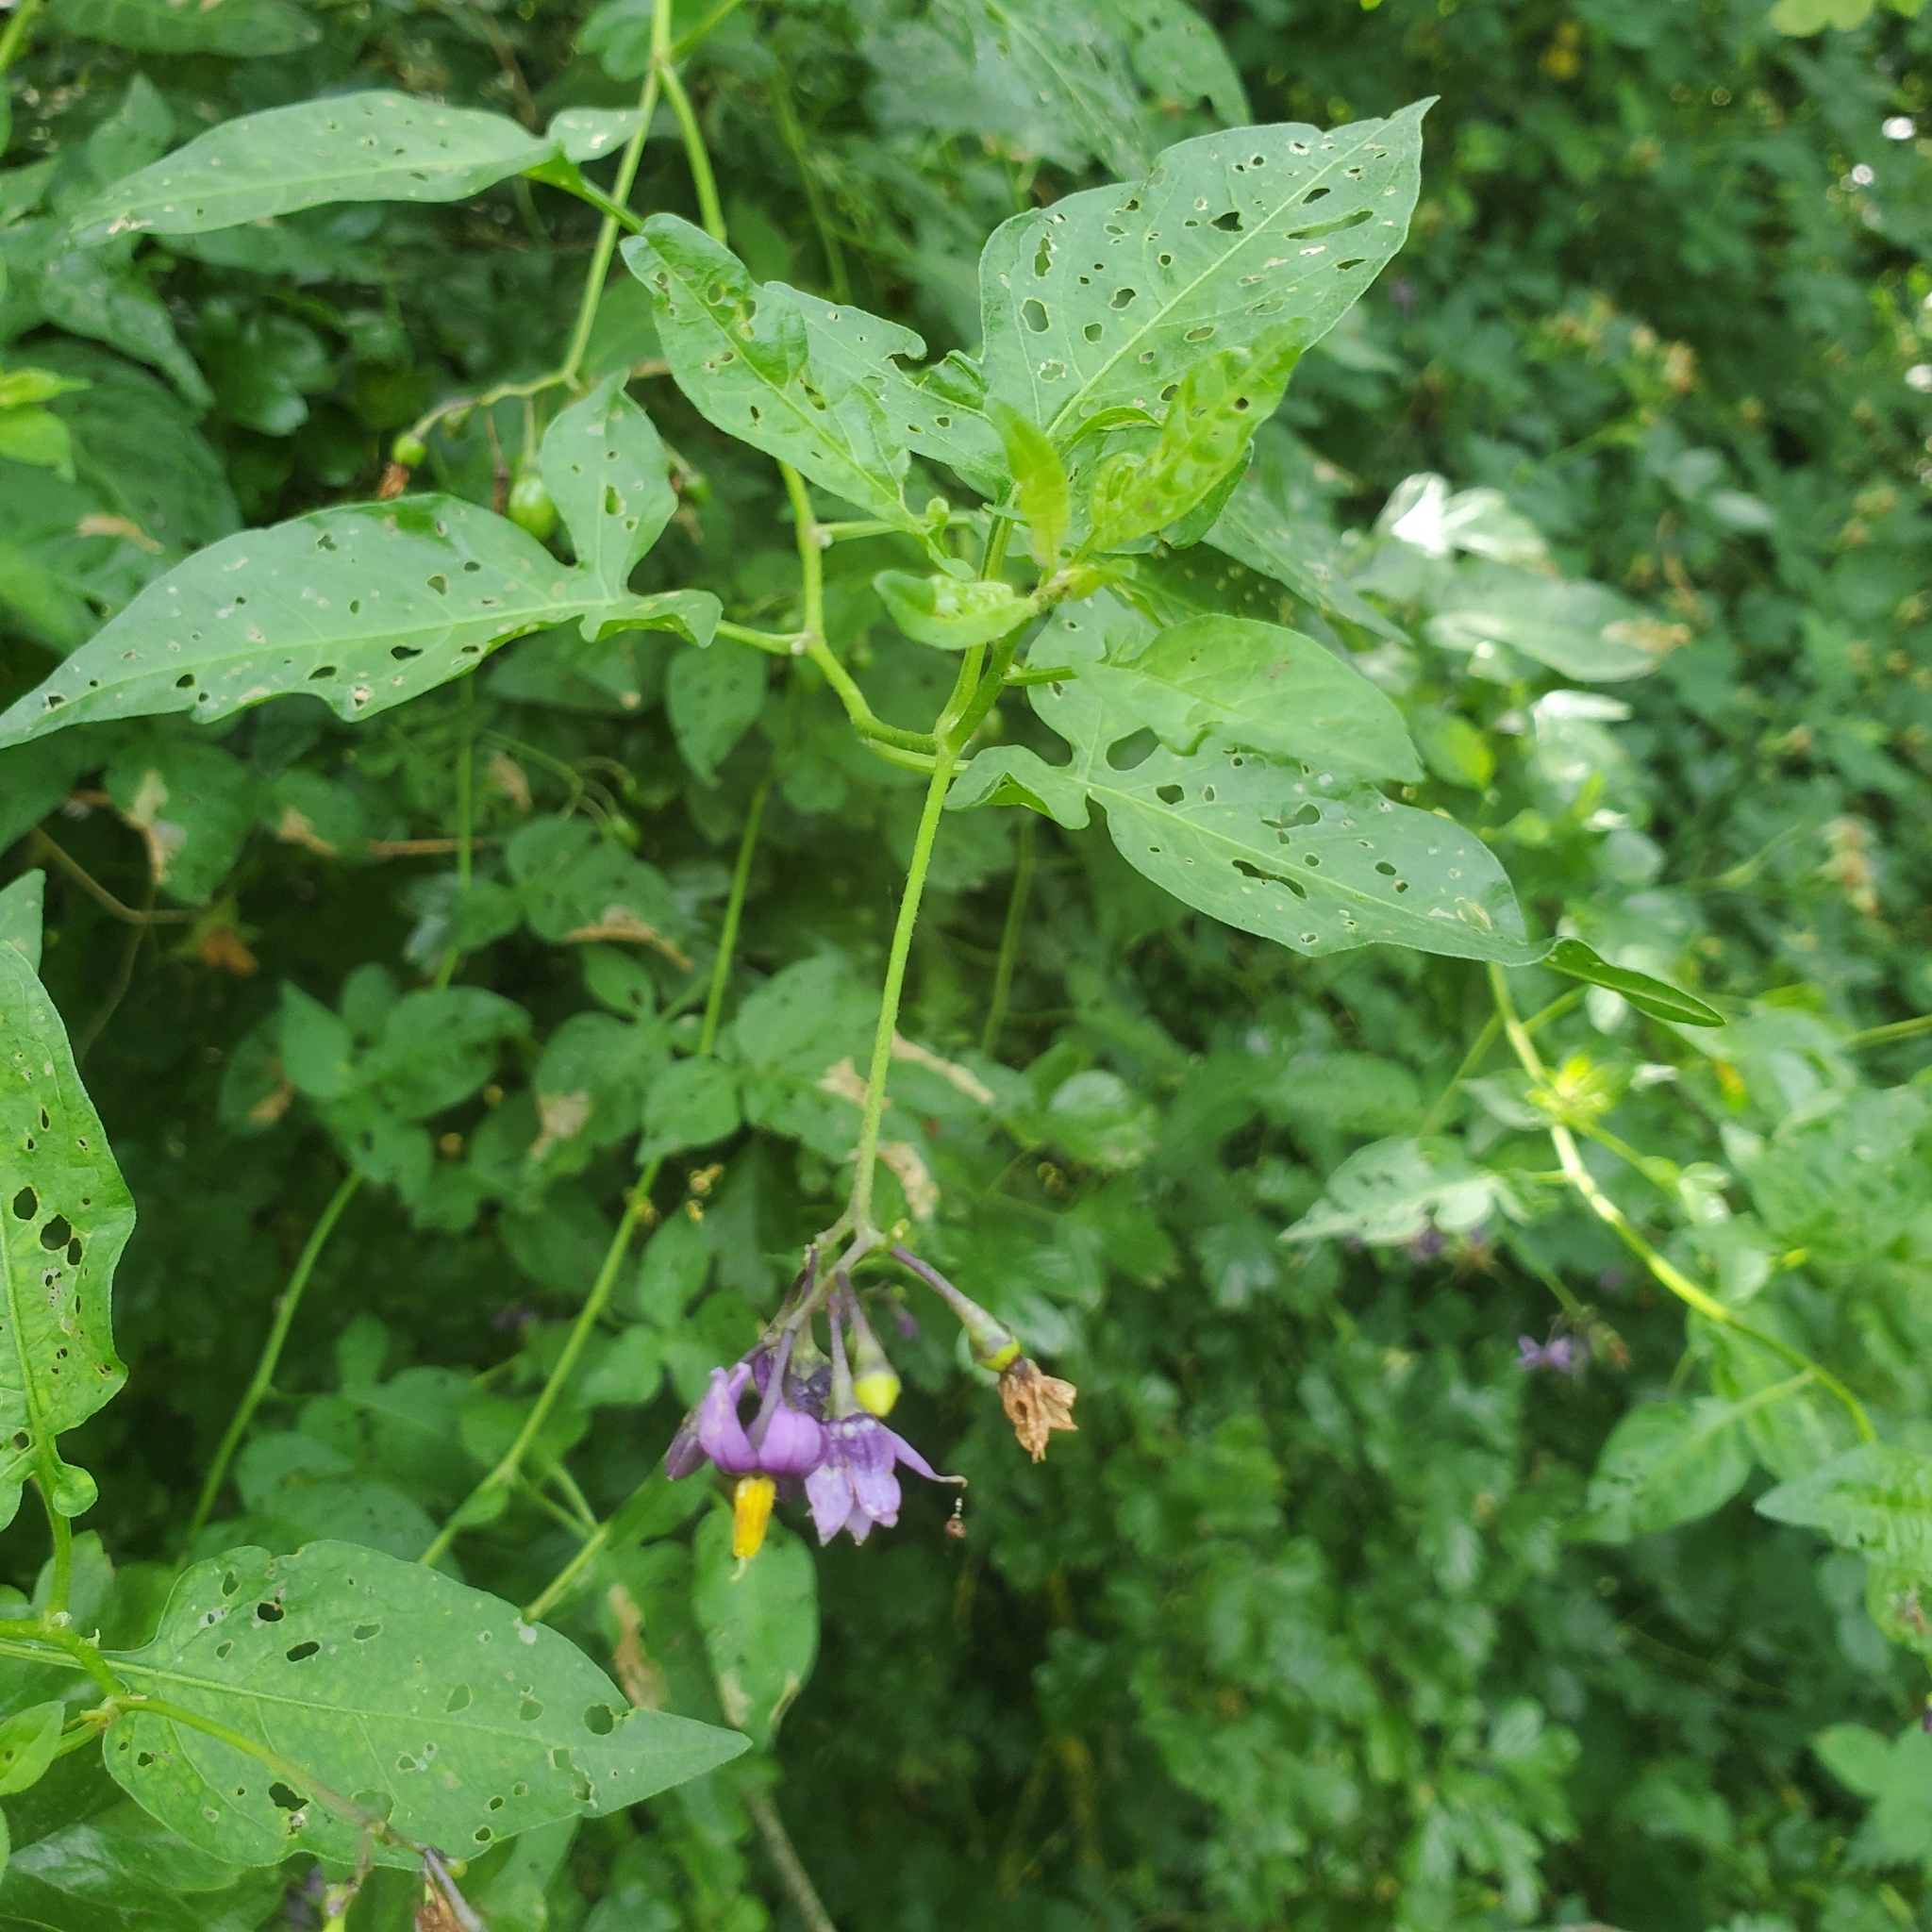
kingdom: Plantae
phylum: Tracheophyta
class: Magnoliopsida
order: Solanales
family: Solanaceae
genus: Solanum
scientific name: Solanum dulcamara
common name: Climbing nightshade
